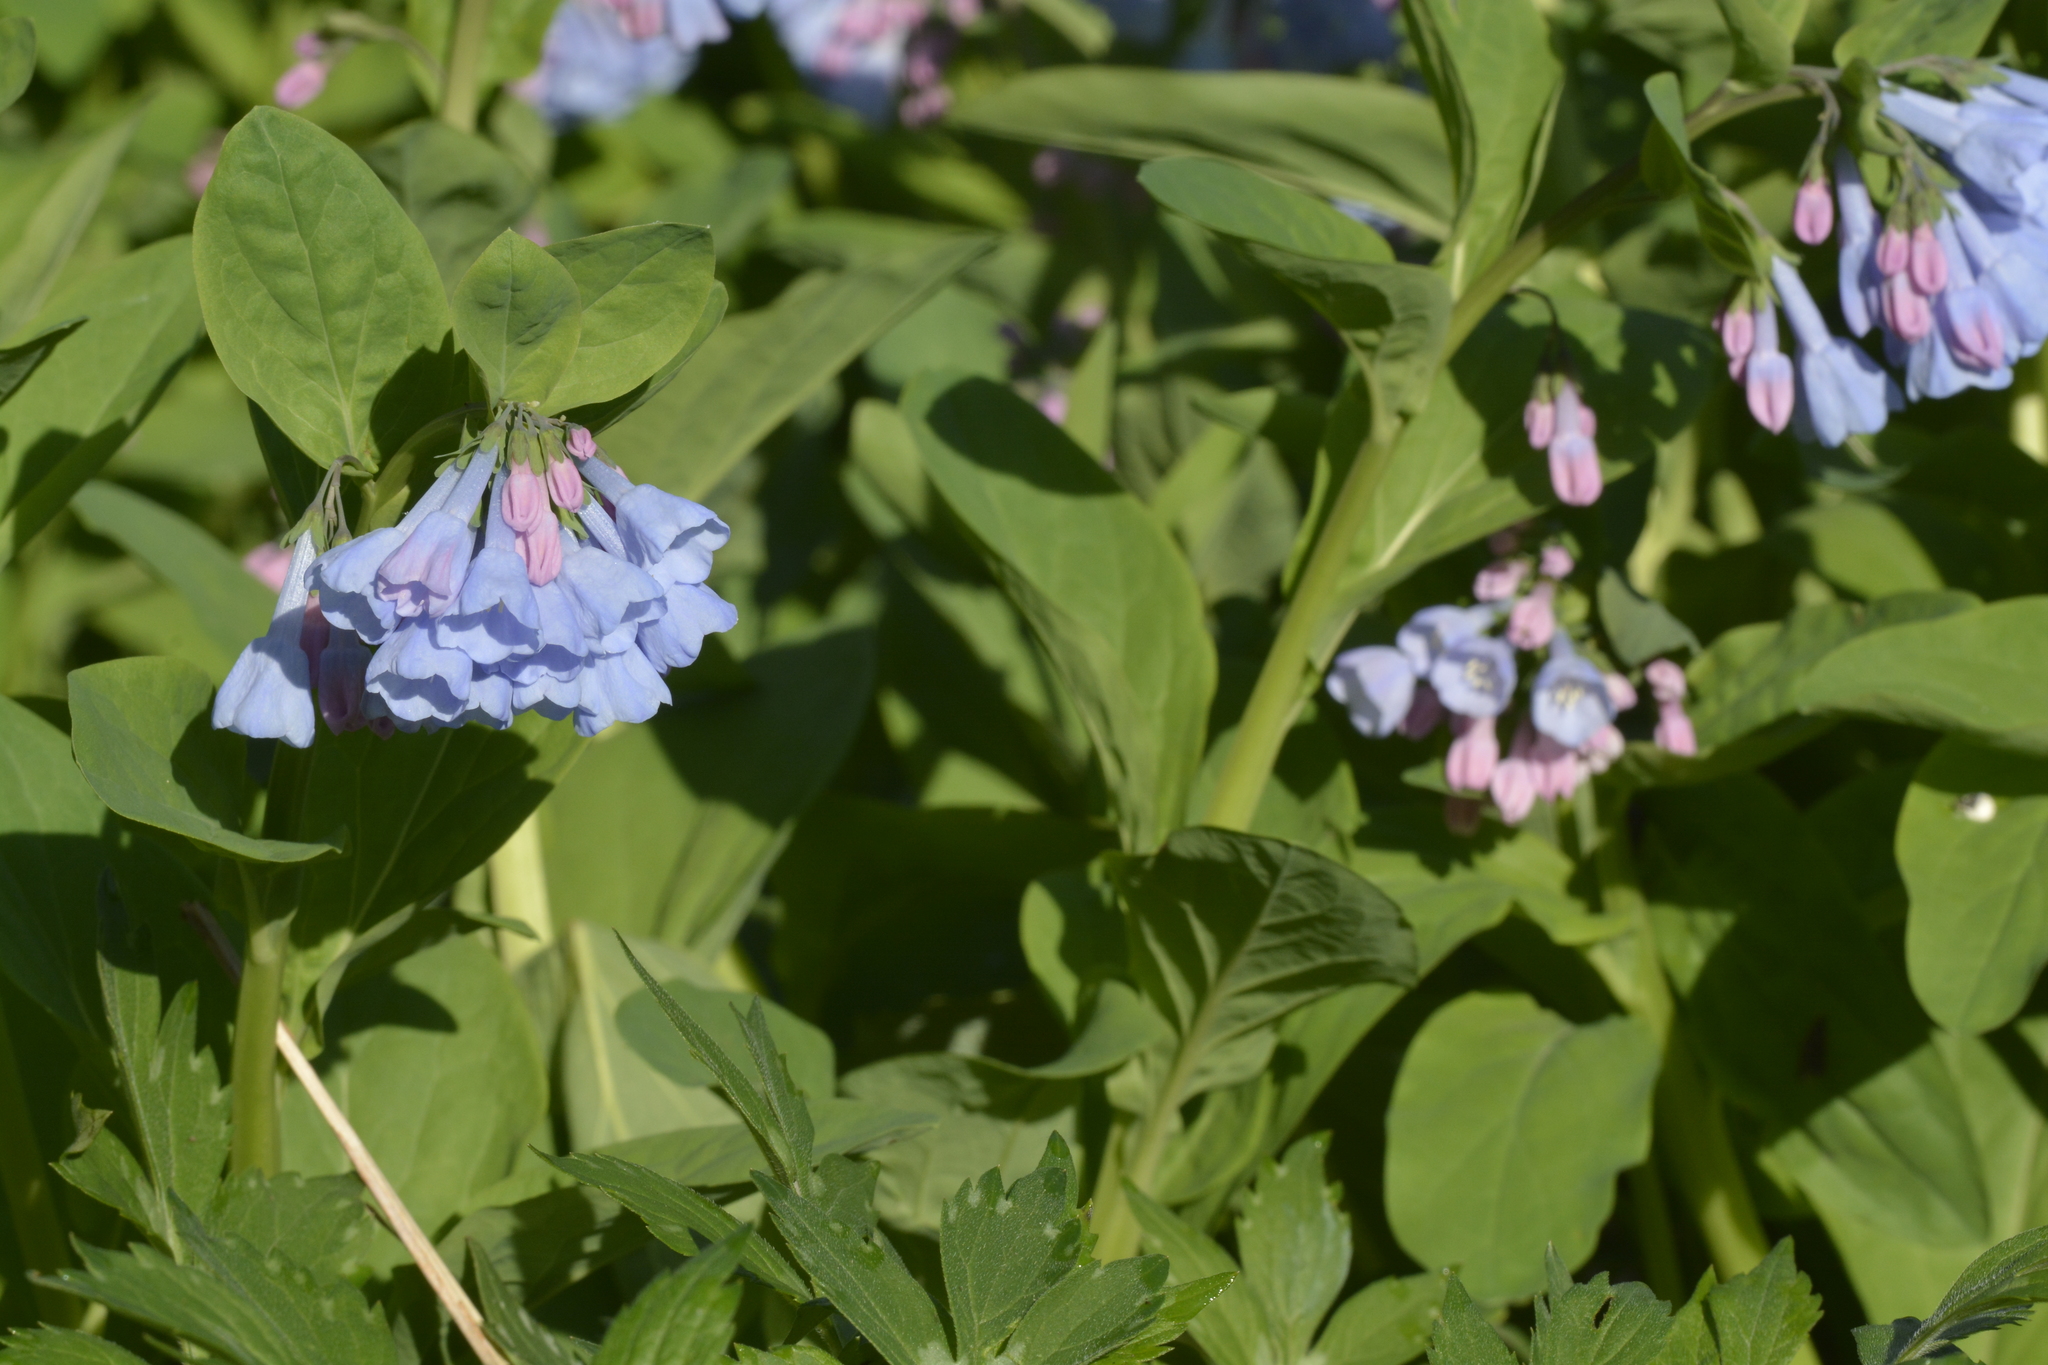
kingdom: Plantae
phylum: Tracheophyta
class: Magnoliopsida
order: Boraginales
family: Boraginaceae
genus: Mertensia
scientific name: Mertensia virginica
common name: Virginia bluebells
